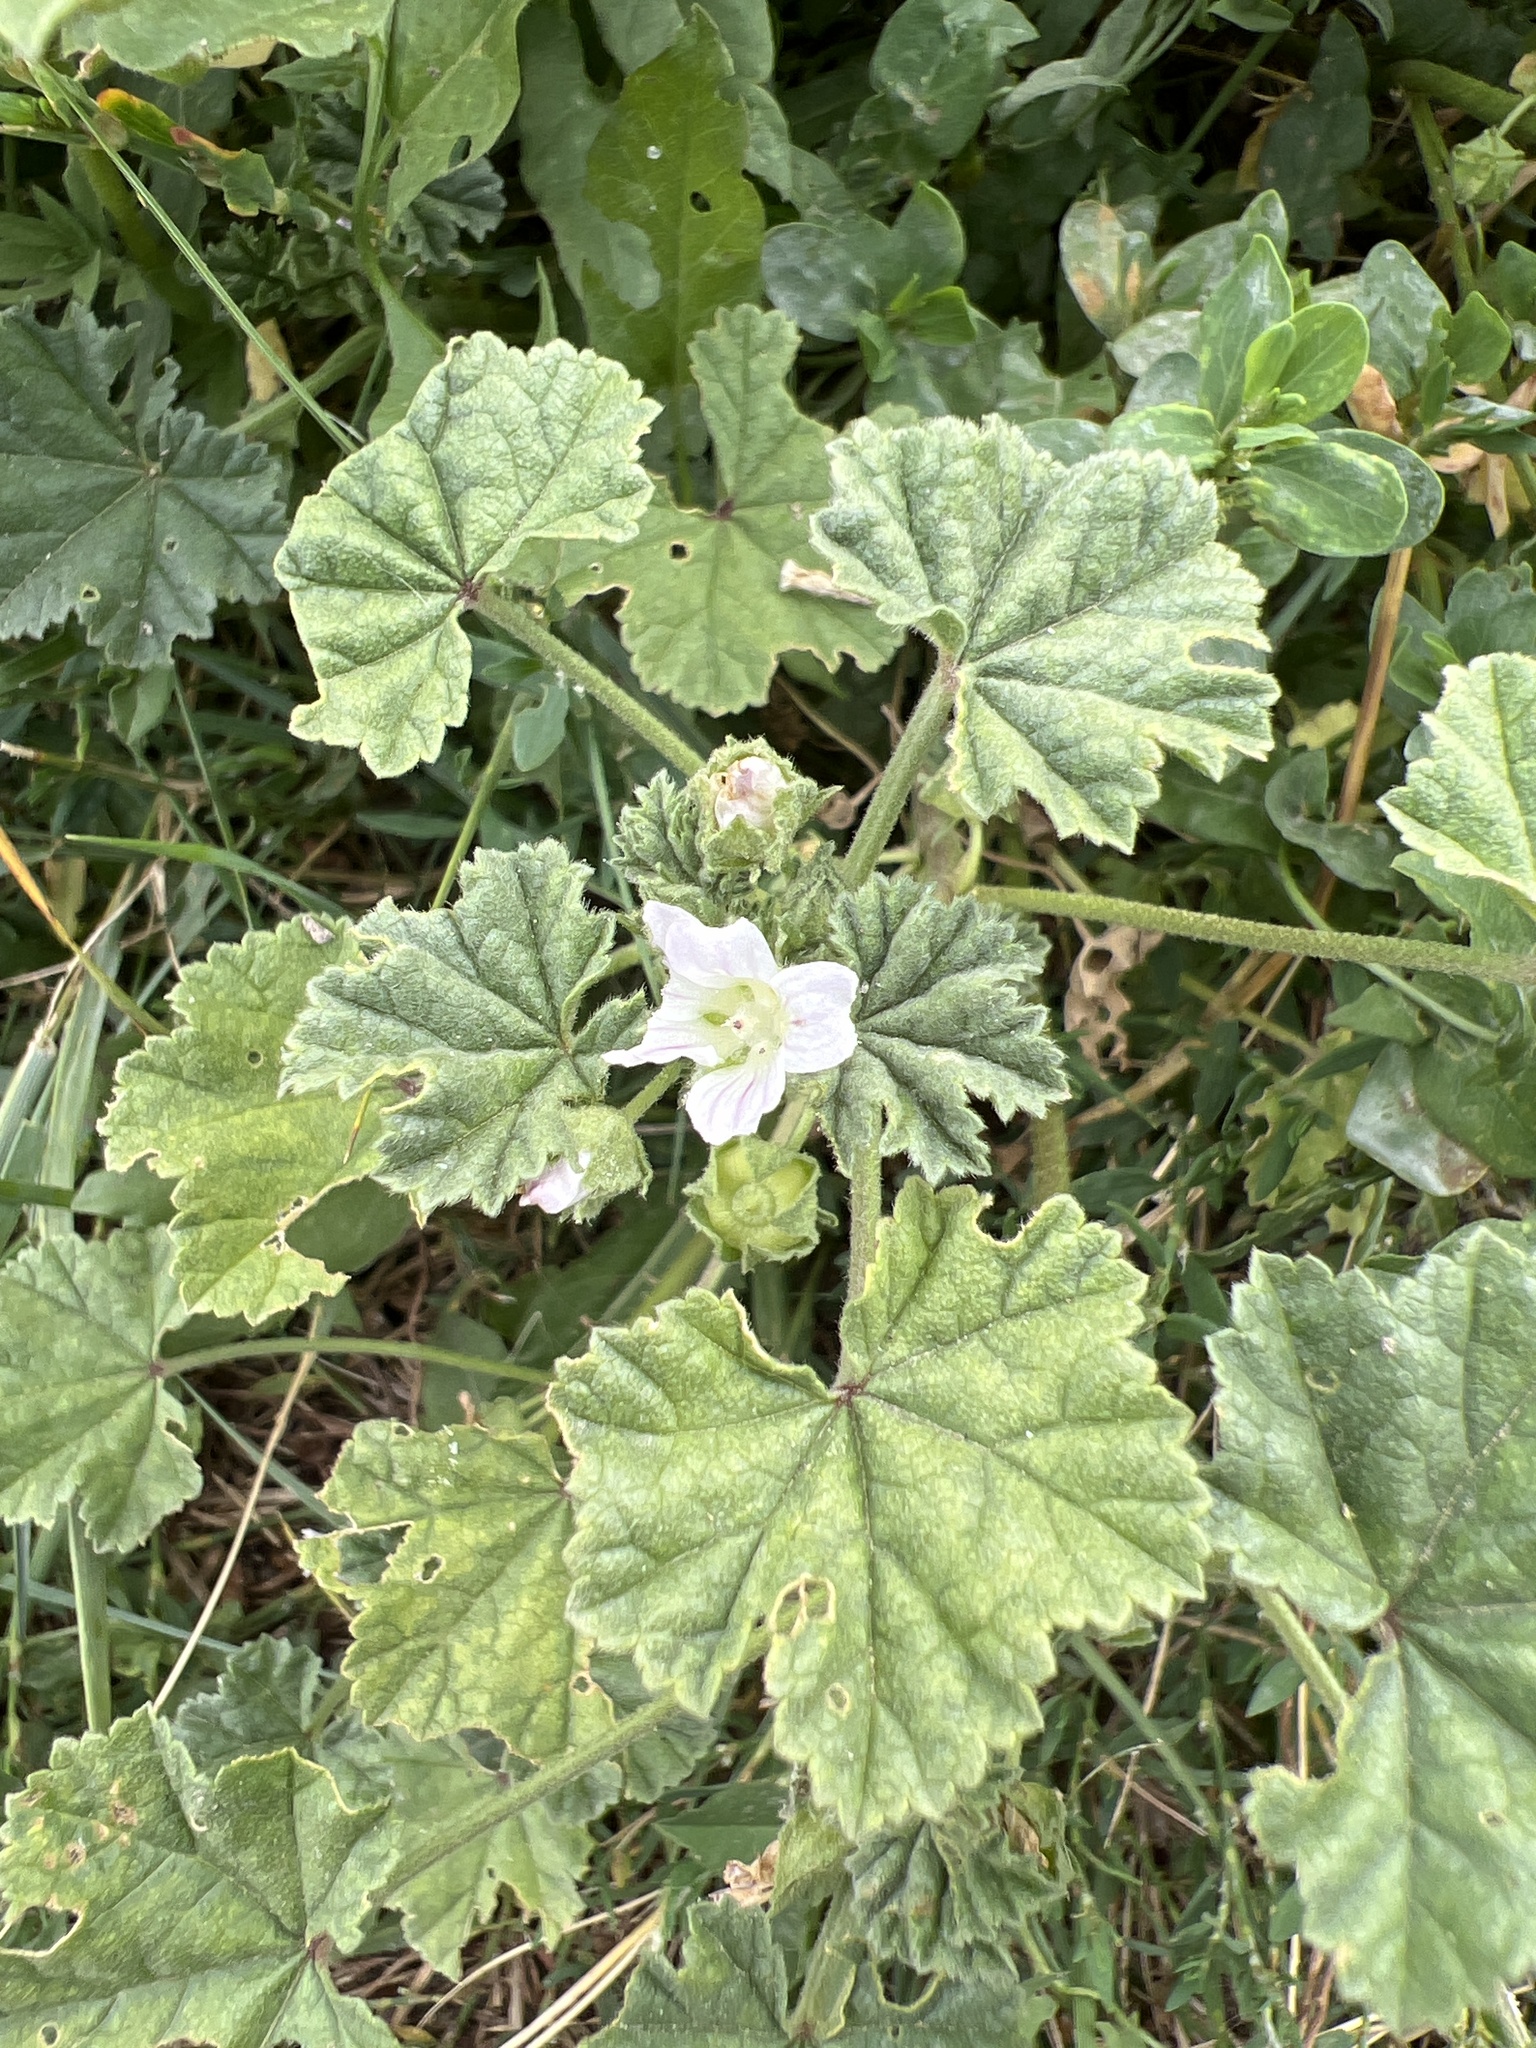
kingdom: Plantae
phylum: Tracheophyta
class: Magnoliopsida
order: Malvales
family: Malvaceae
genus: Malva
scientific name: Malva neglecta
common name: Common mallow
